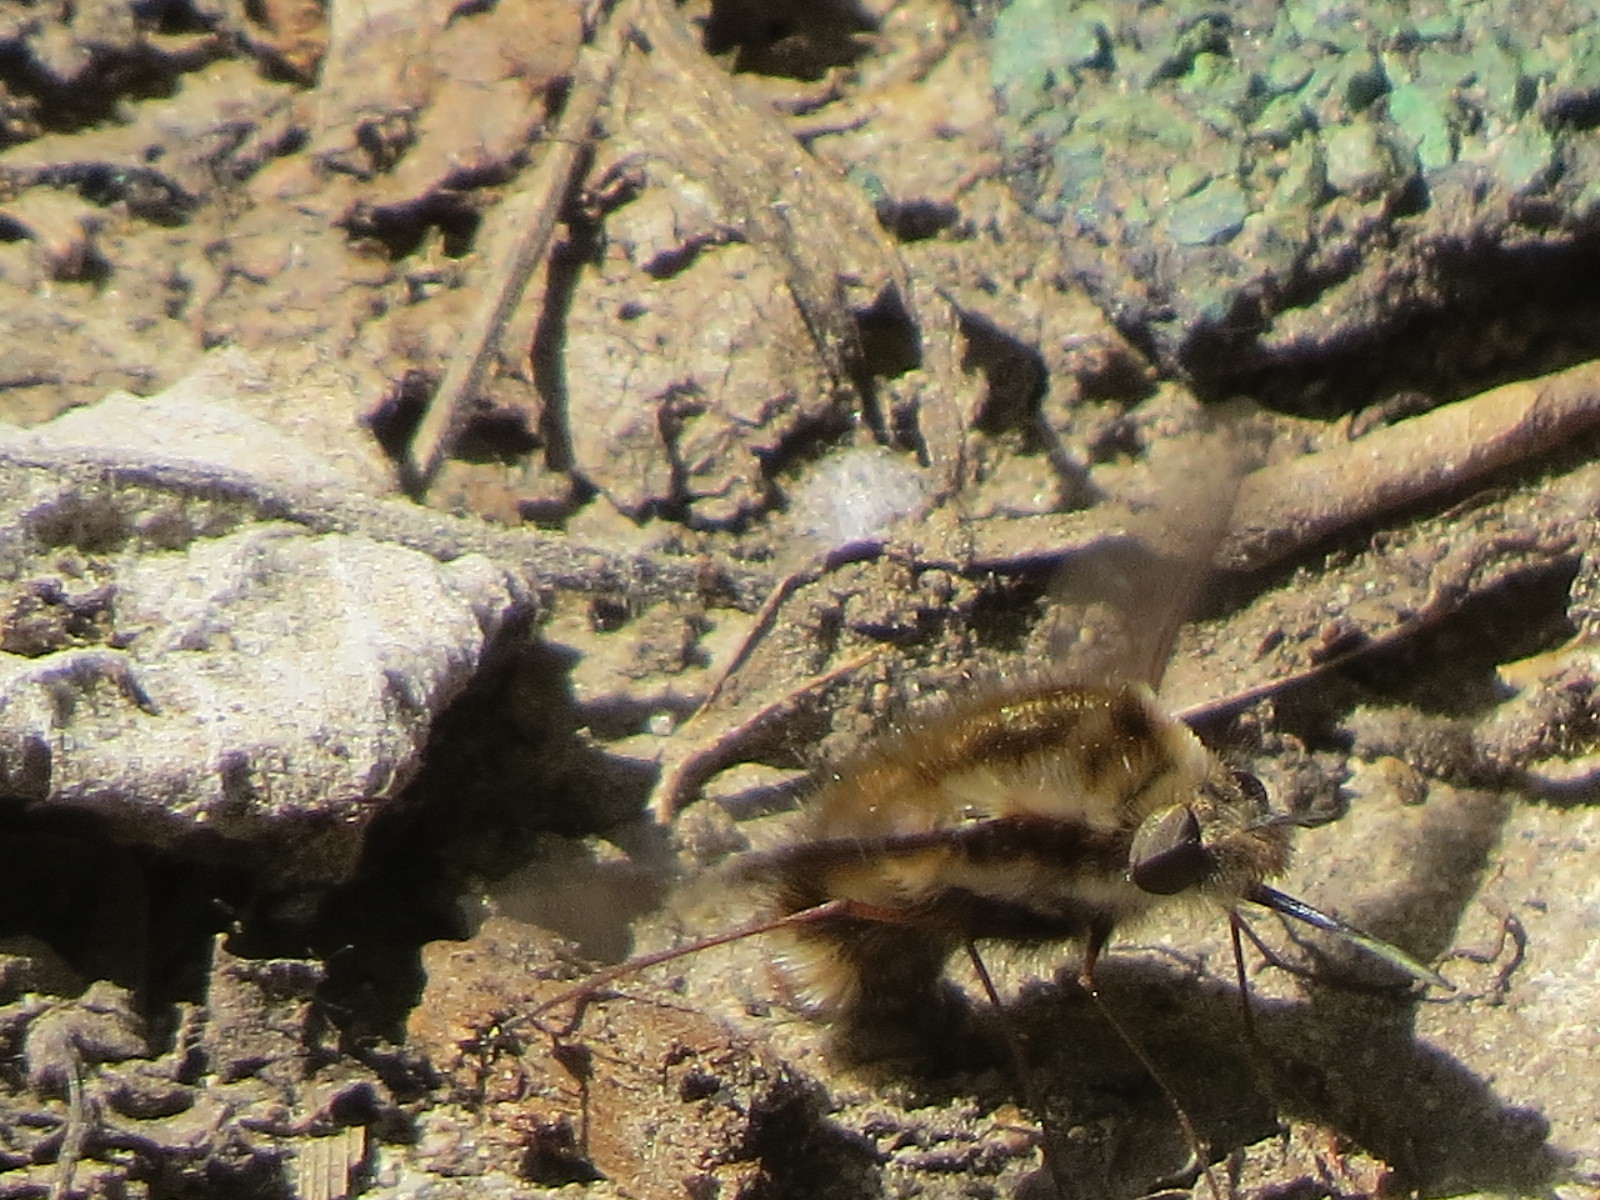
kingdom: Animalia
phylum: Arthropoda
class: Insecta
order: Diptera
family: Bombyliidae
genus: Bombylius
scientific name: Bombylius major
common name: Bee fly
